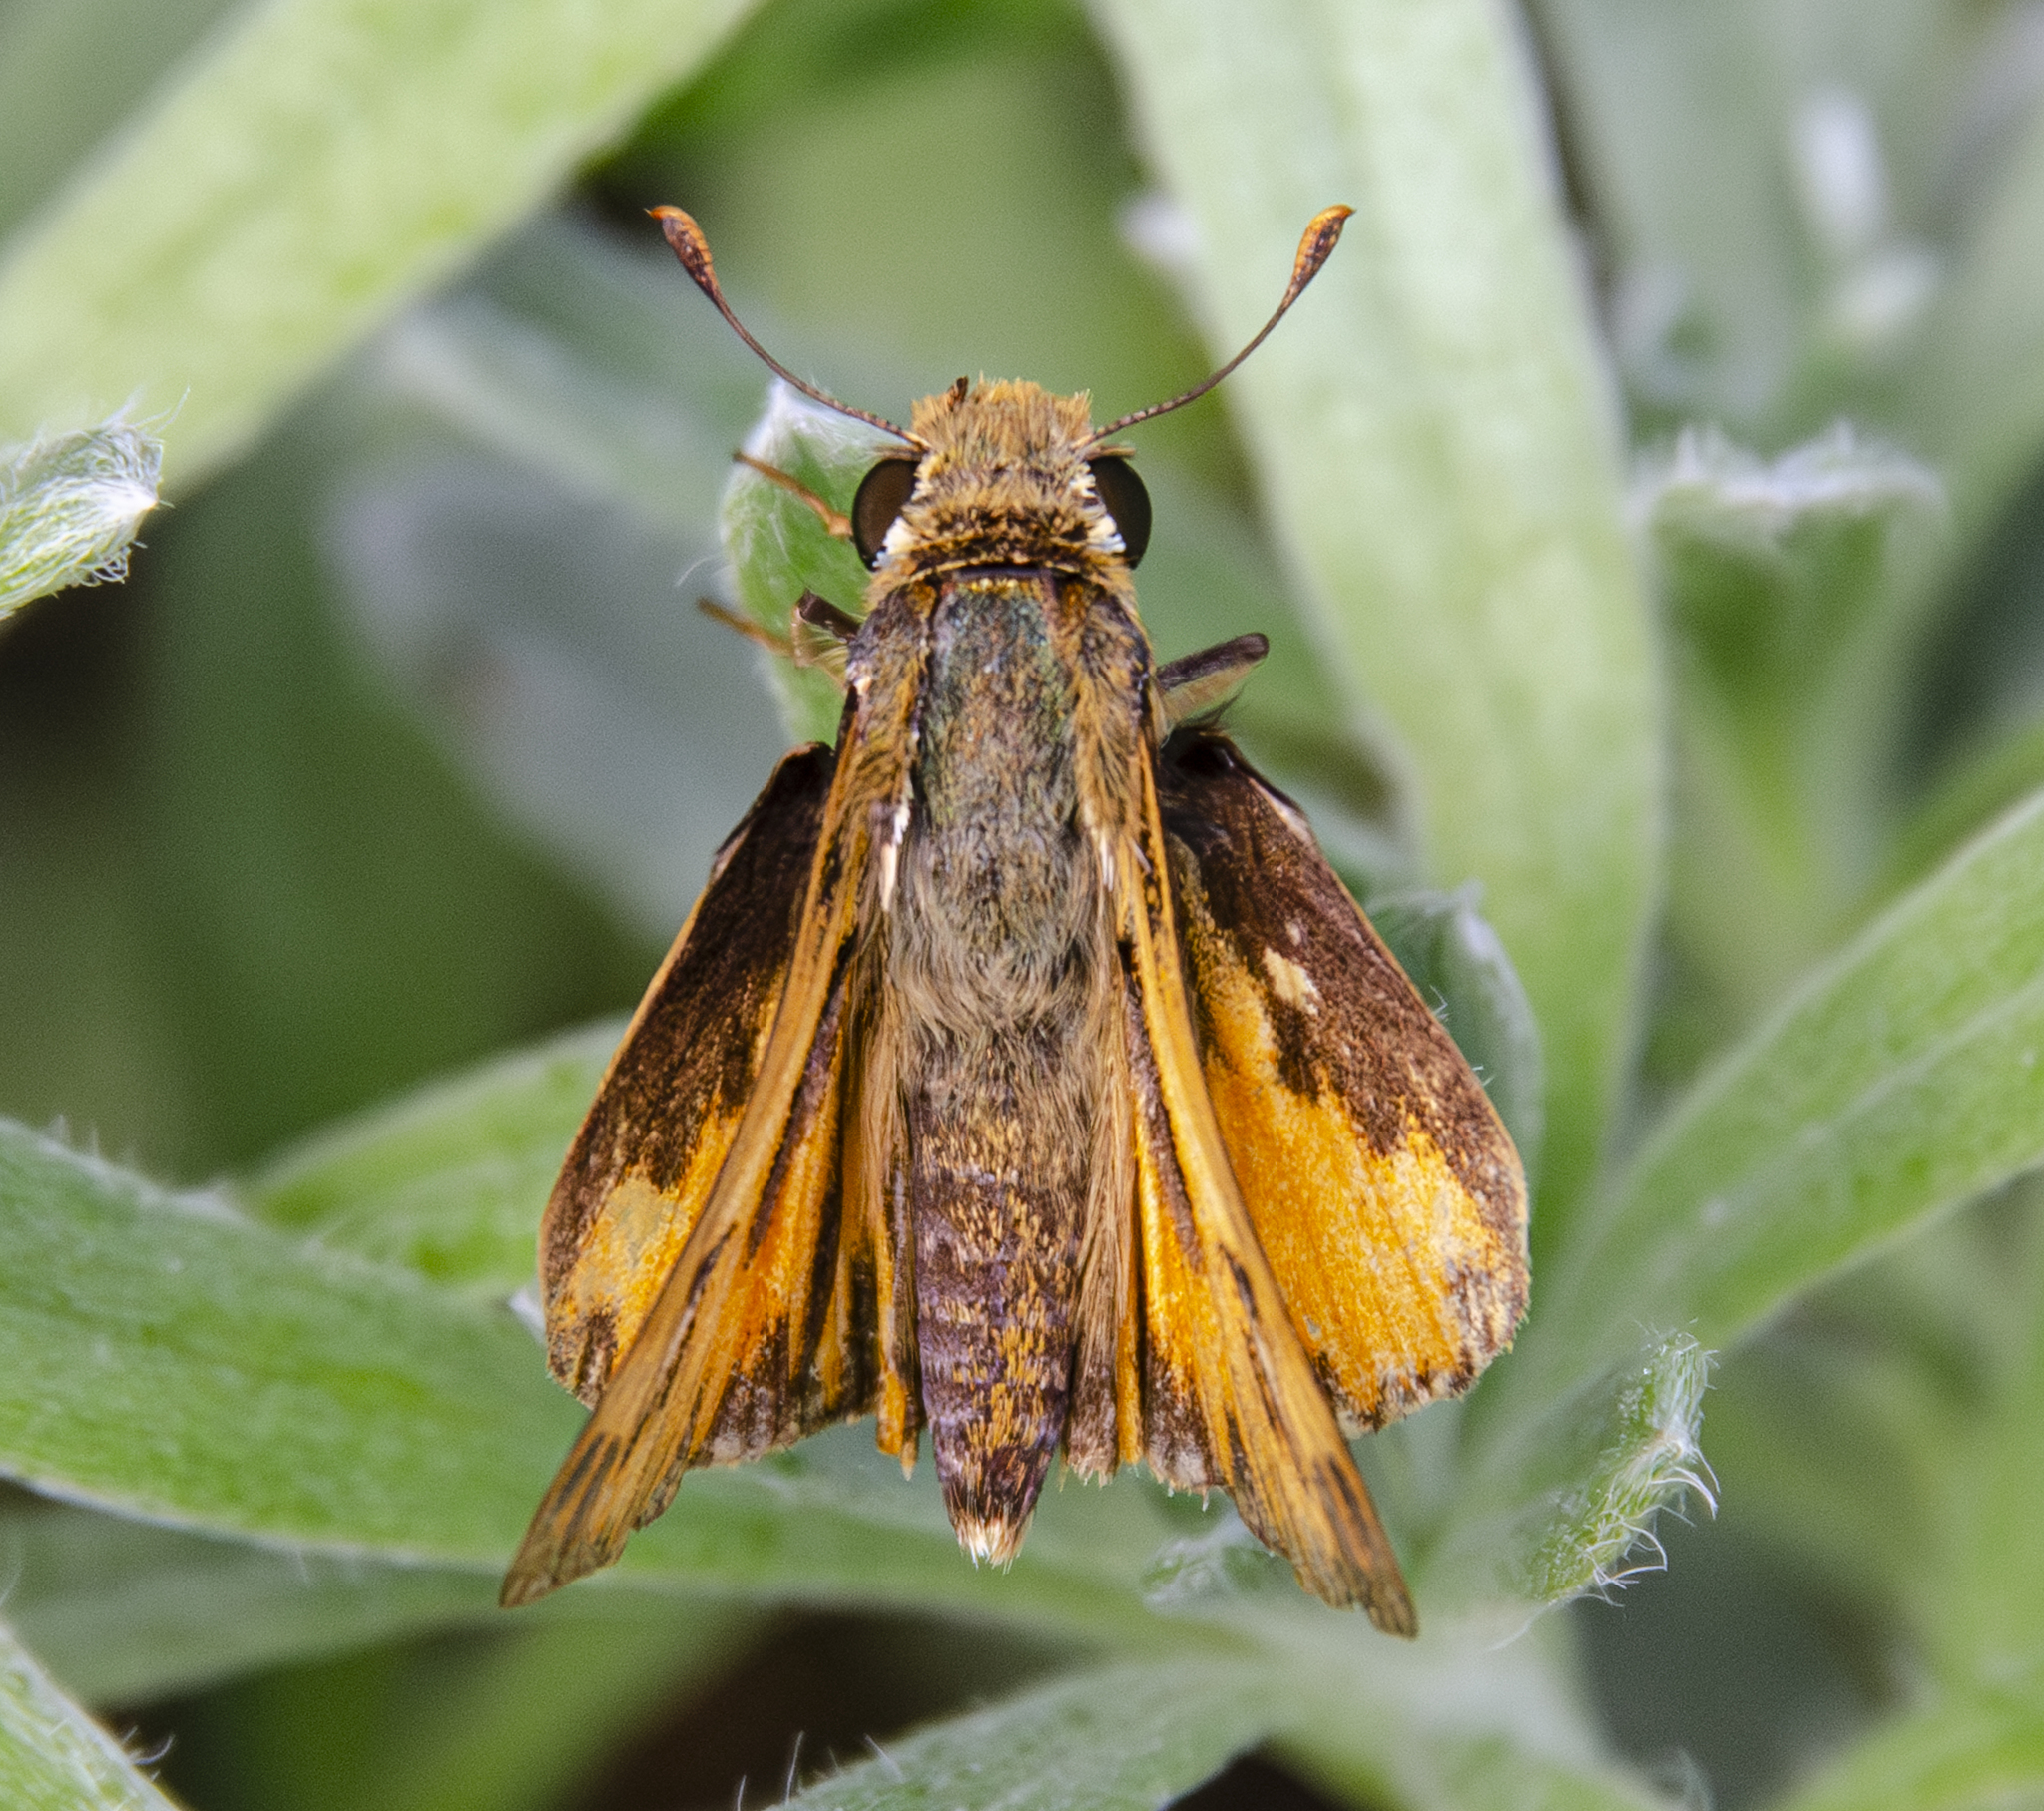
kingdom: Animalia
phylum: Arthropoda
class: Insecta
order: Lepidoptera
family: Hesperiidae
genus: Hylephila
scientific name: Hylephila phyleus
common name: Fiery skipper
